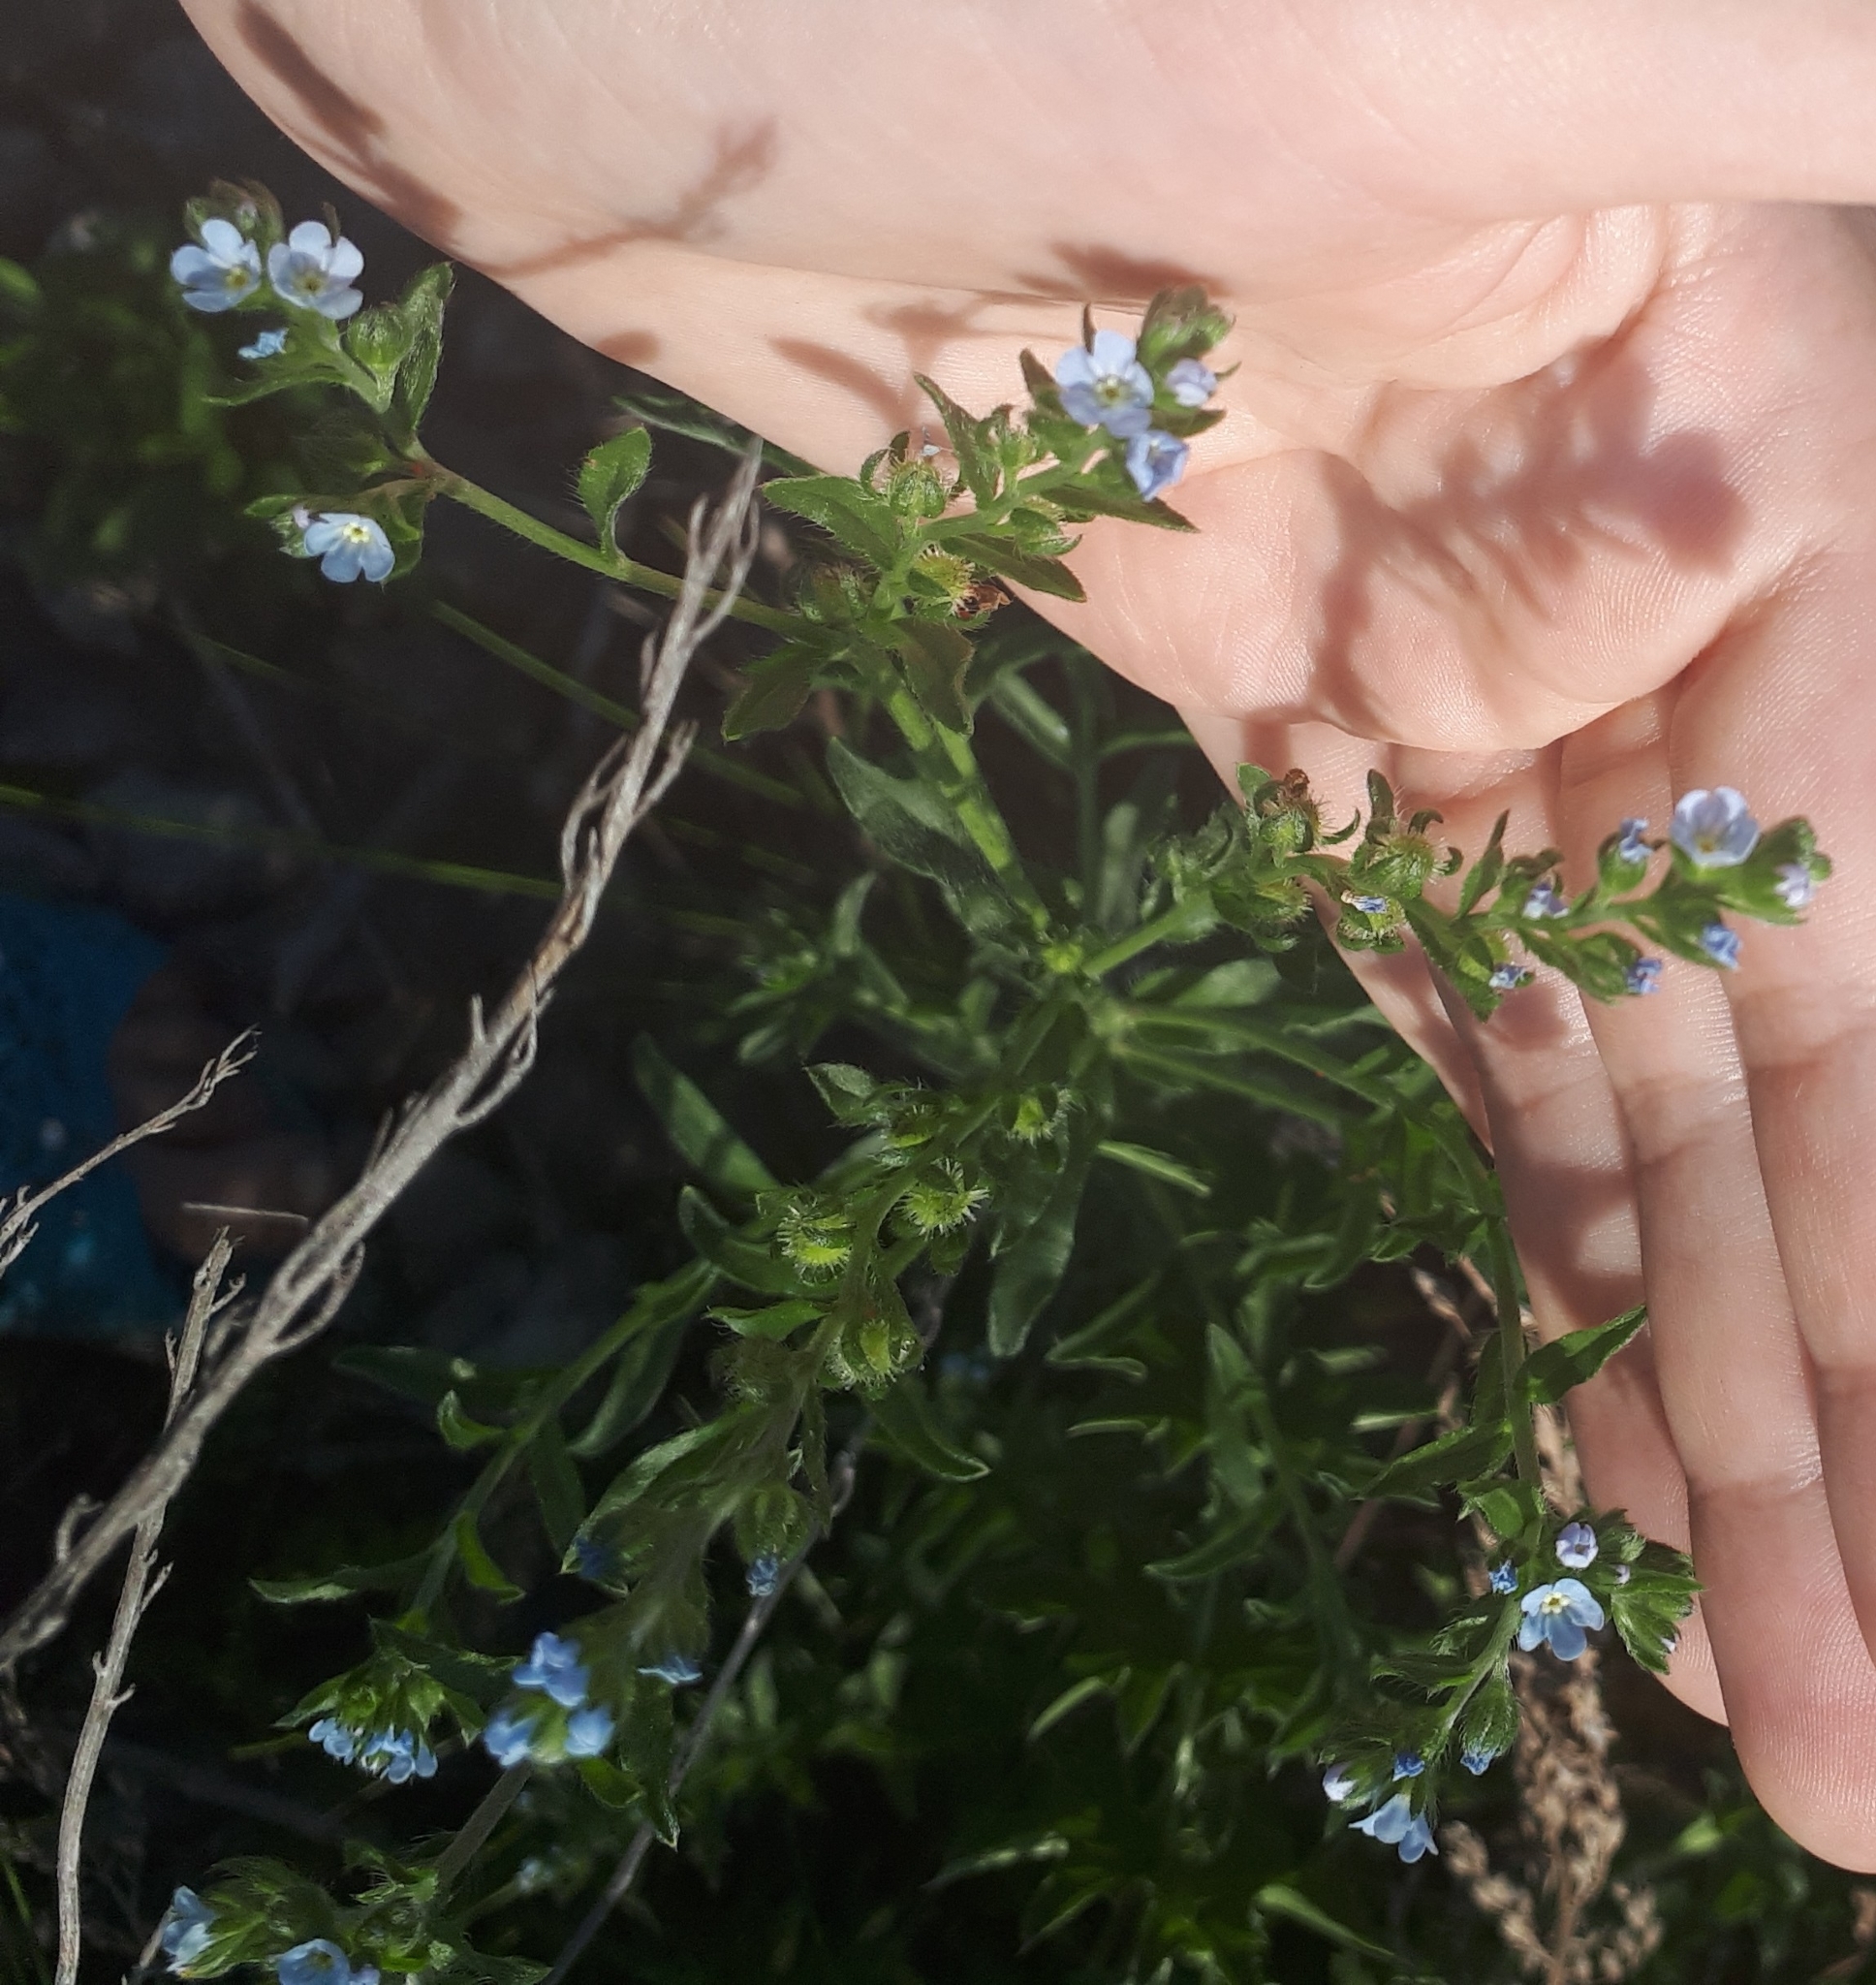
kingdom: Plantae
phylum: Tracheophyta
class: Magnoliopsida
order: Boraginales
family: Boraginaceae
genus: Lappula
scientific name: Lappula squarrosa
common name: European stickseed
